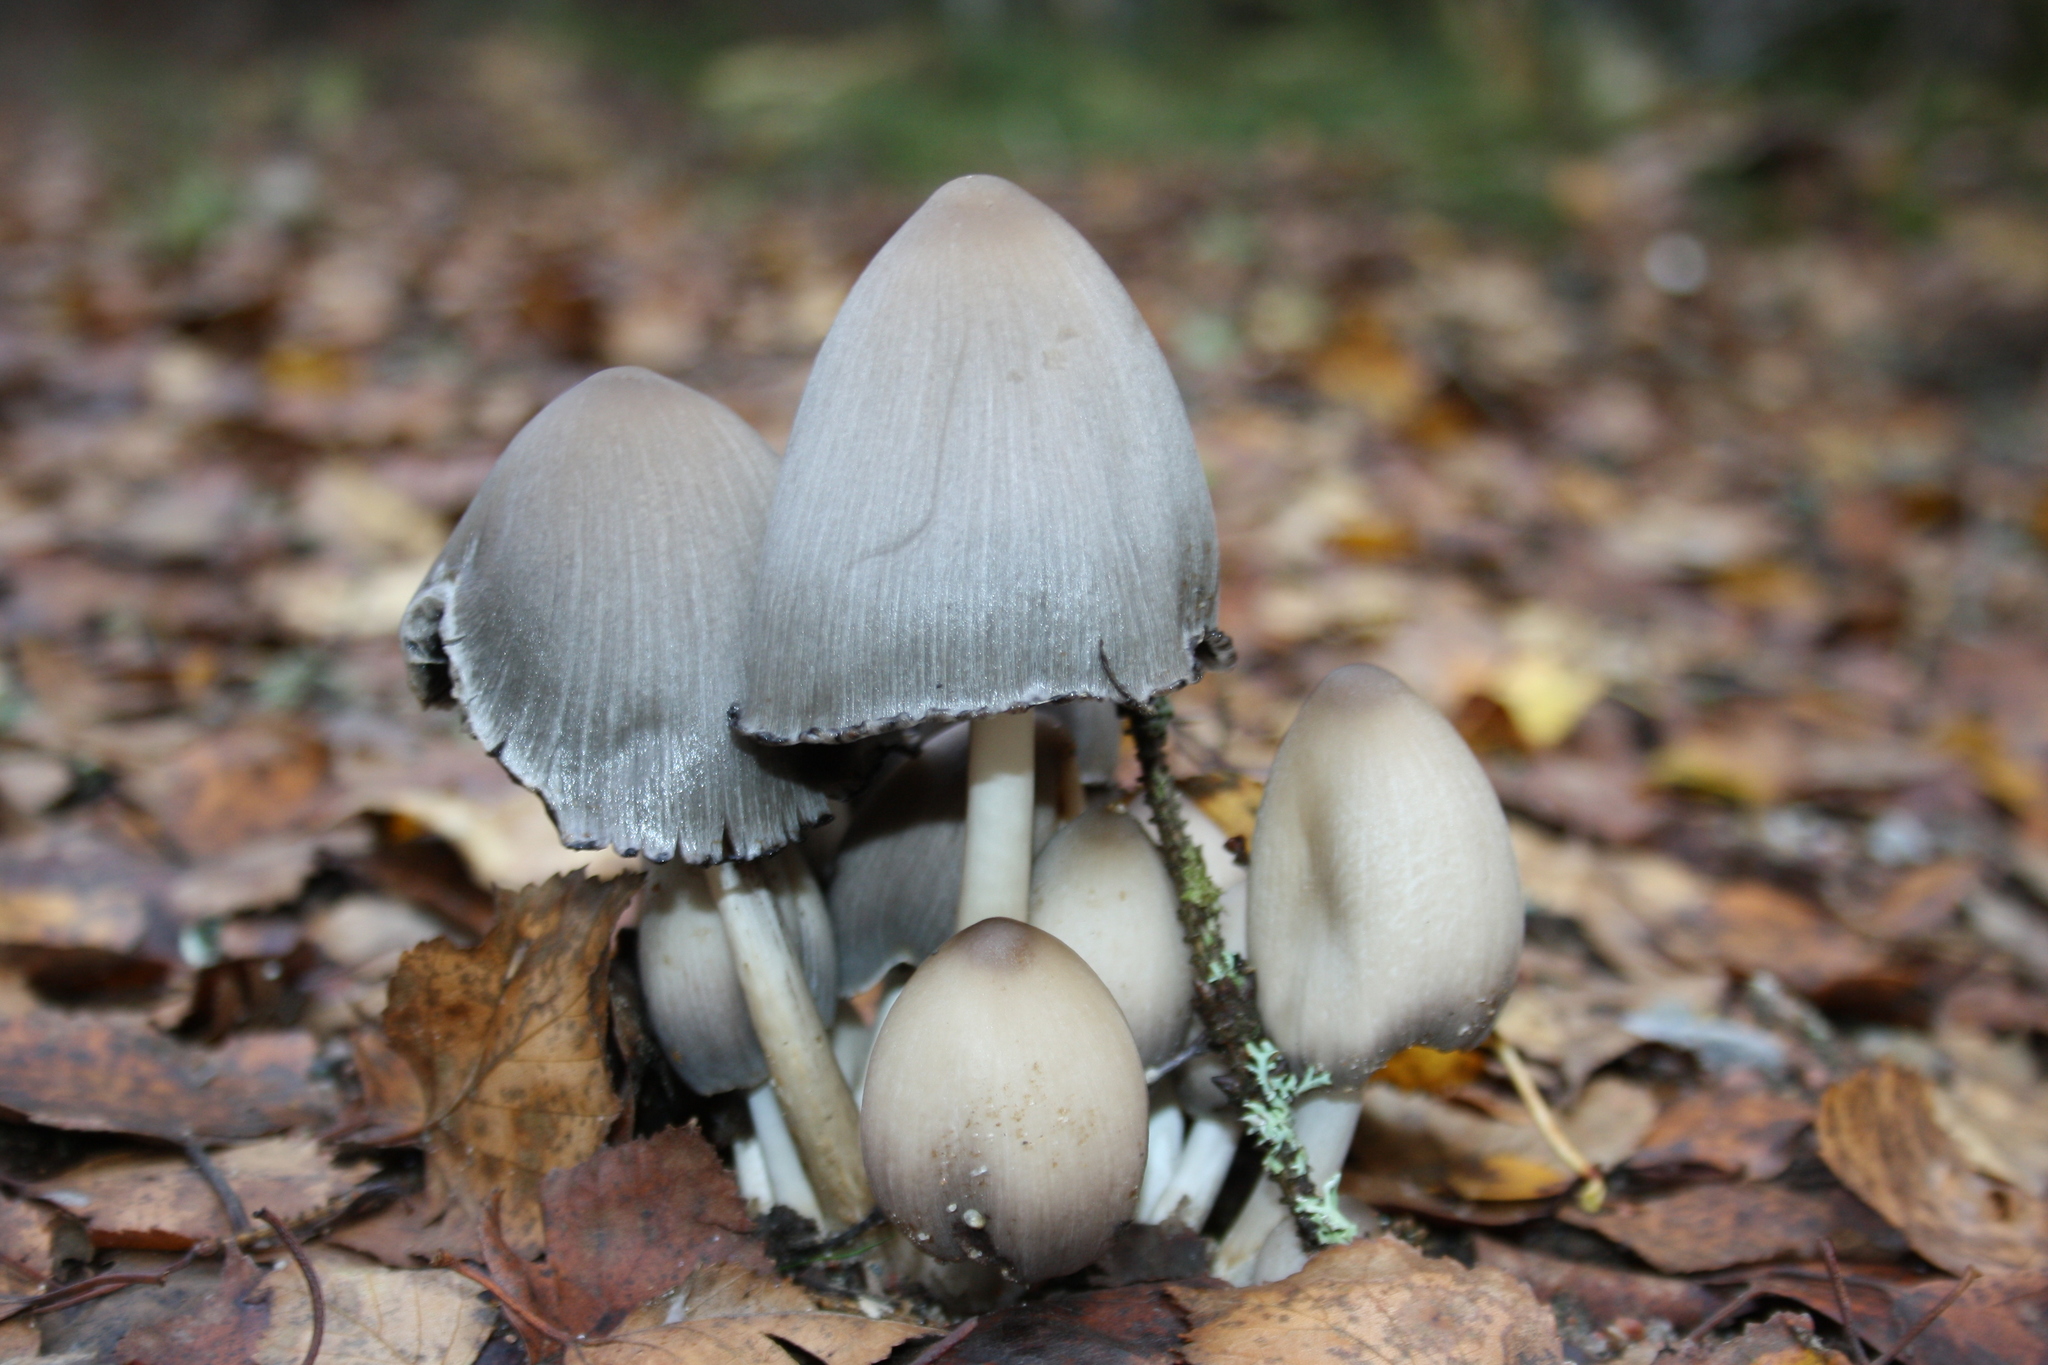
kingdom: Fungi
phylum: Basidiomycota
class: Agaricomycetes
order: Agaricales
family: Psathyrellaceae
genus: Coprinopsis
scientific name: Coprinopsis atramentaria
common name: Common ink-cap
